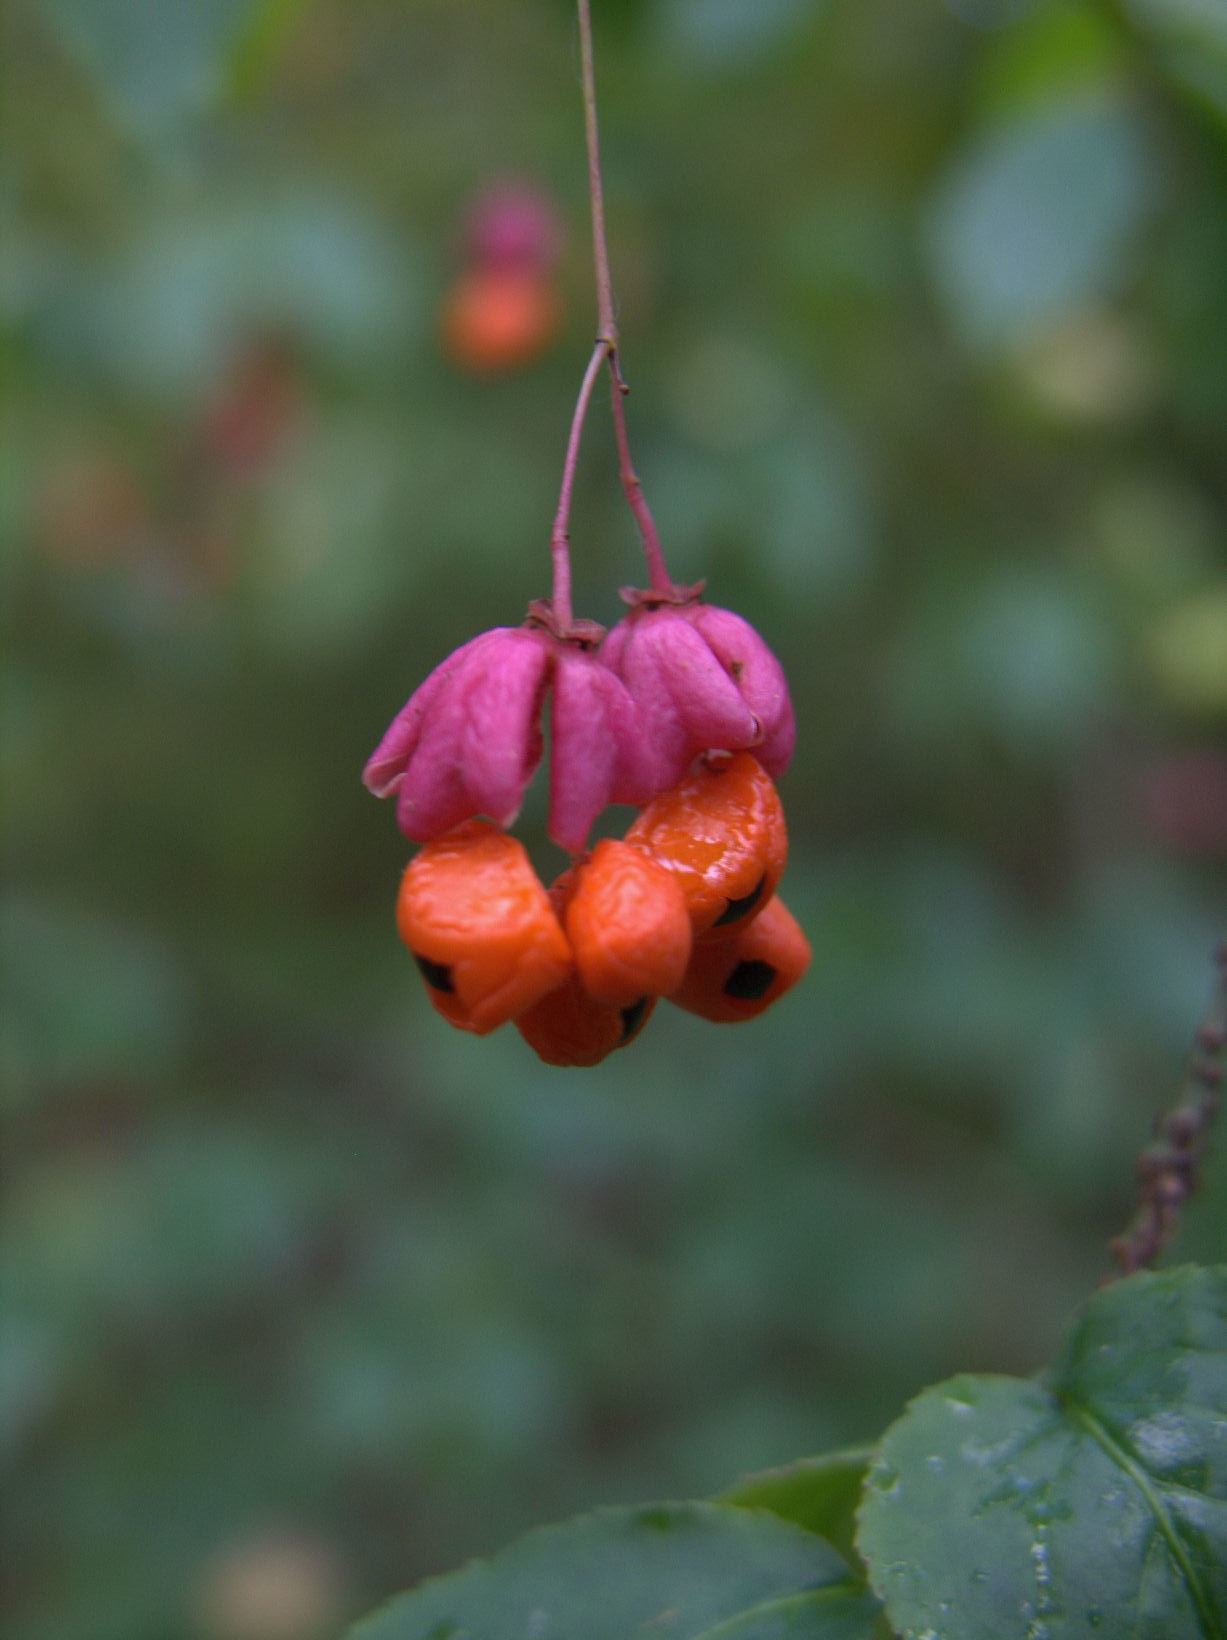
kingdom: Plantae
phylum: Tracheophyta
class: Magnoliopsida
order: Celastrales
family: Celastraceae
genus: Euonymus
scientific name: Euonymus verrucosus
